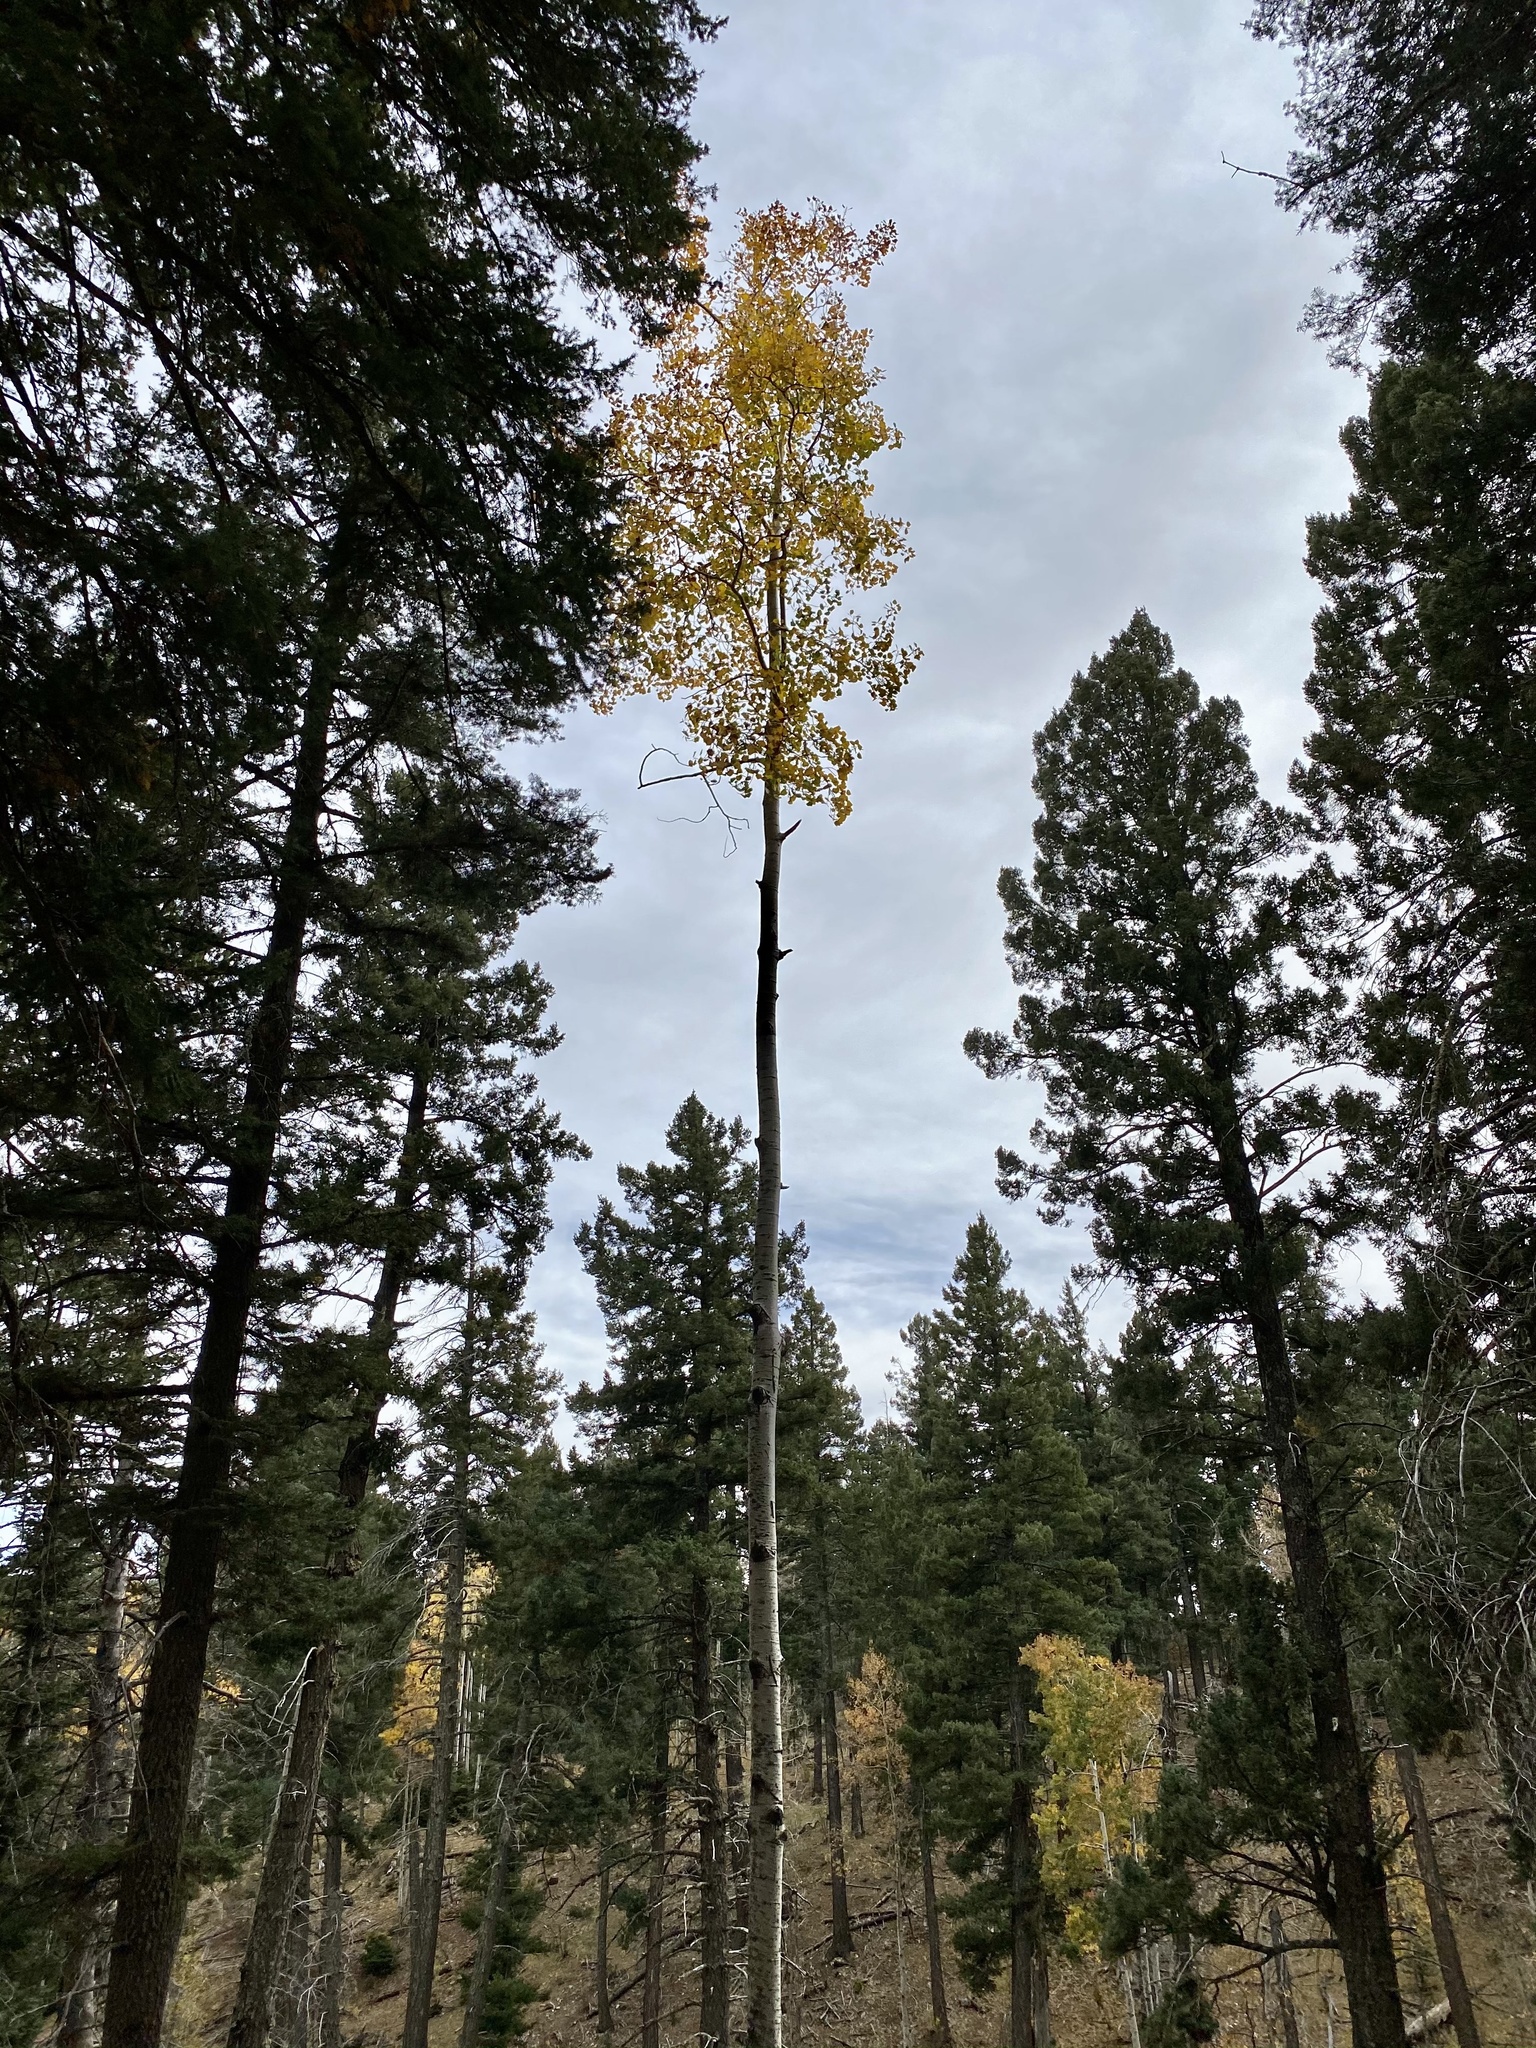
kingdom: Plantae
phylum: Tracheophyta
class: Magnoliopsida
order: Malpighiales
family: Salicaceae
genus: Populus
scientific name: Populus tremuloides
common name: Quaking aspen
